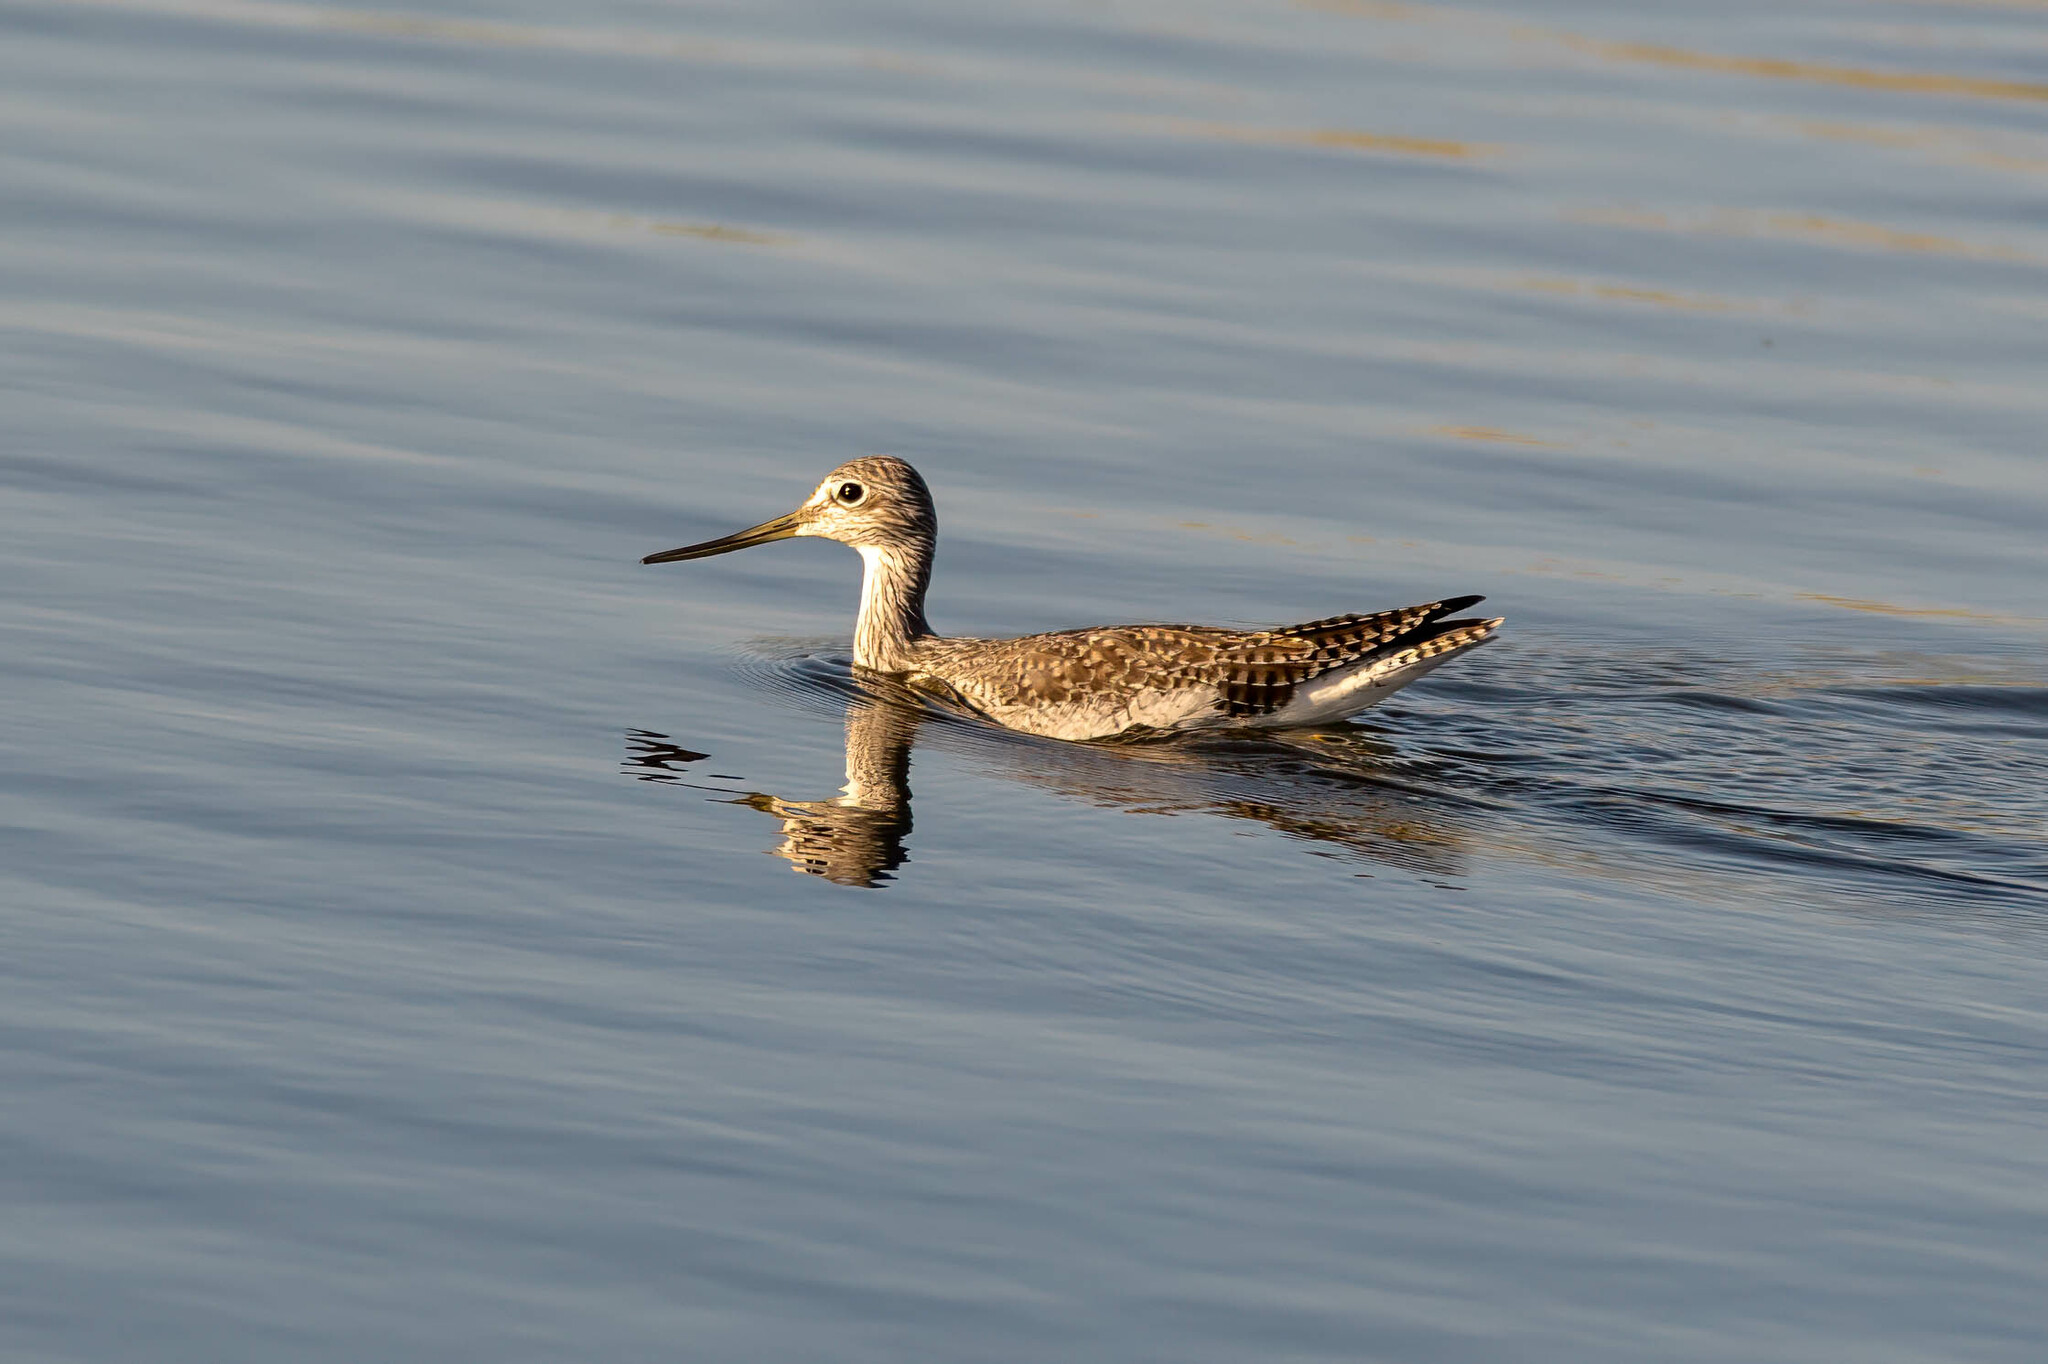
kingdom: Animalia
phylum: Chordata
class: Aves
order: Charadriiformes
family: Scolopacidae
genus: Tringa
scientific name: Tringa melanoleuca
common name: Greater yellowlegs
